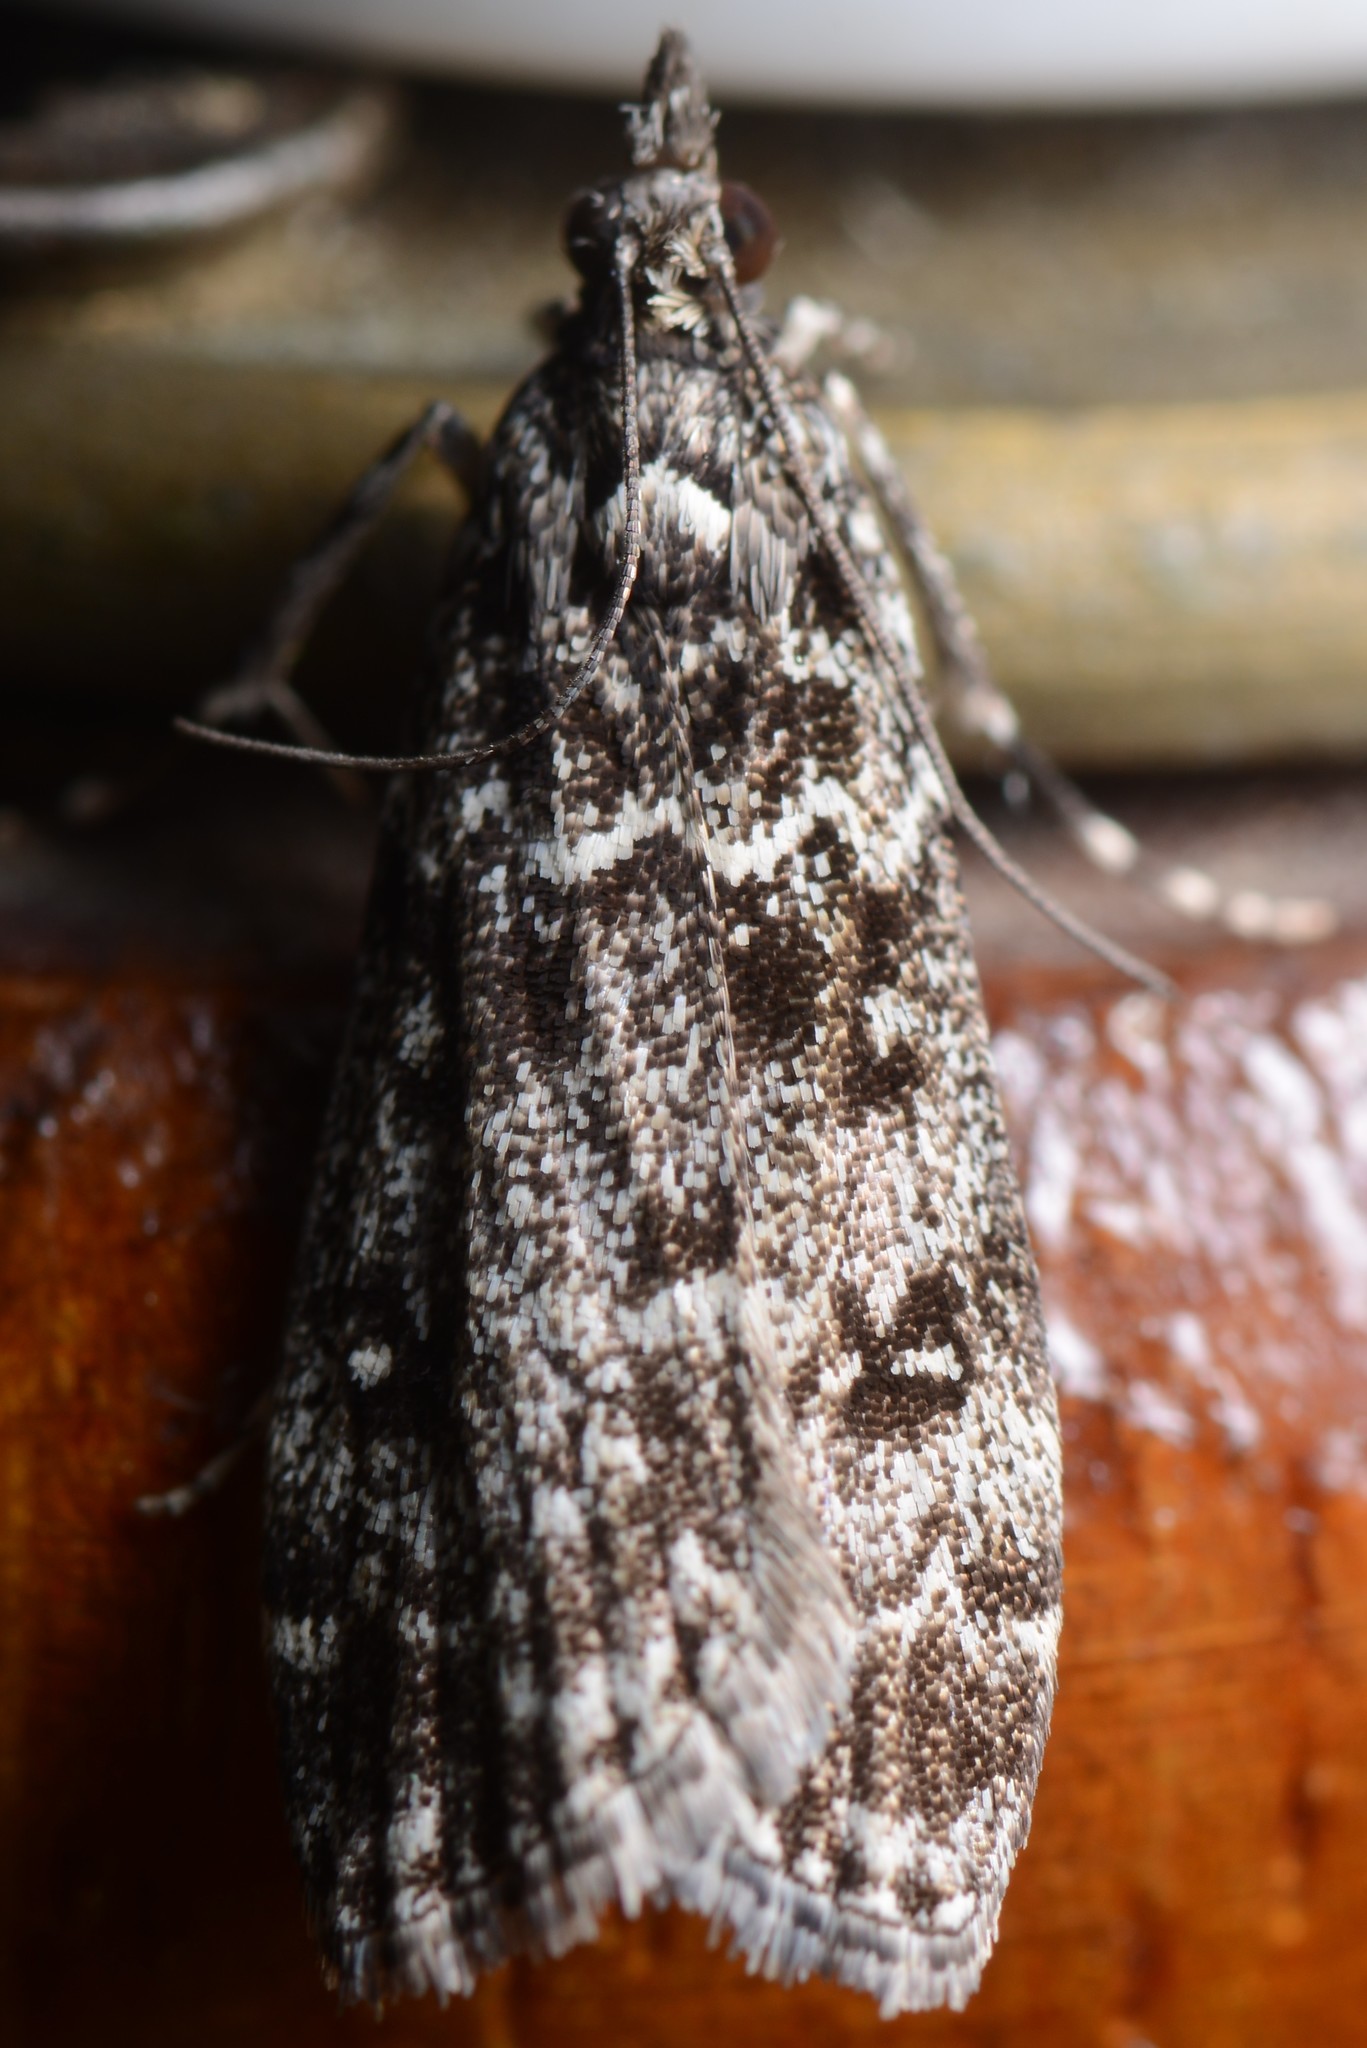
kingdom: Animalia
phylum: Arthropoda
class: Insecta
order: Lepidoptera
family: Crambidae
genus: Eudonia
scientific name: Eudonia philerga
